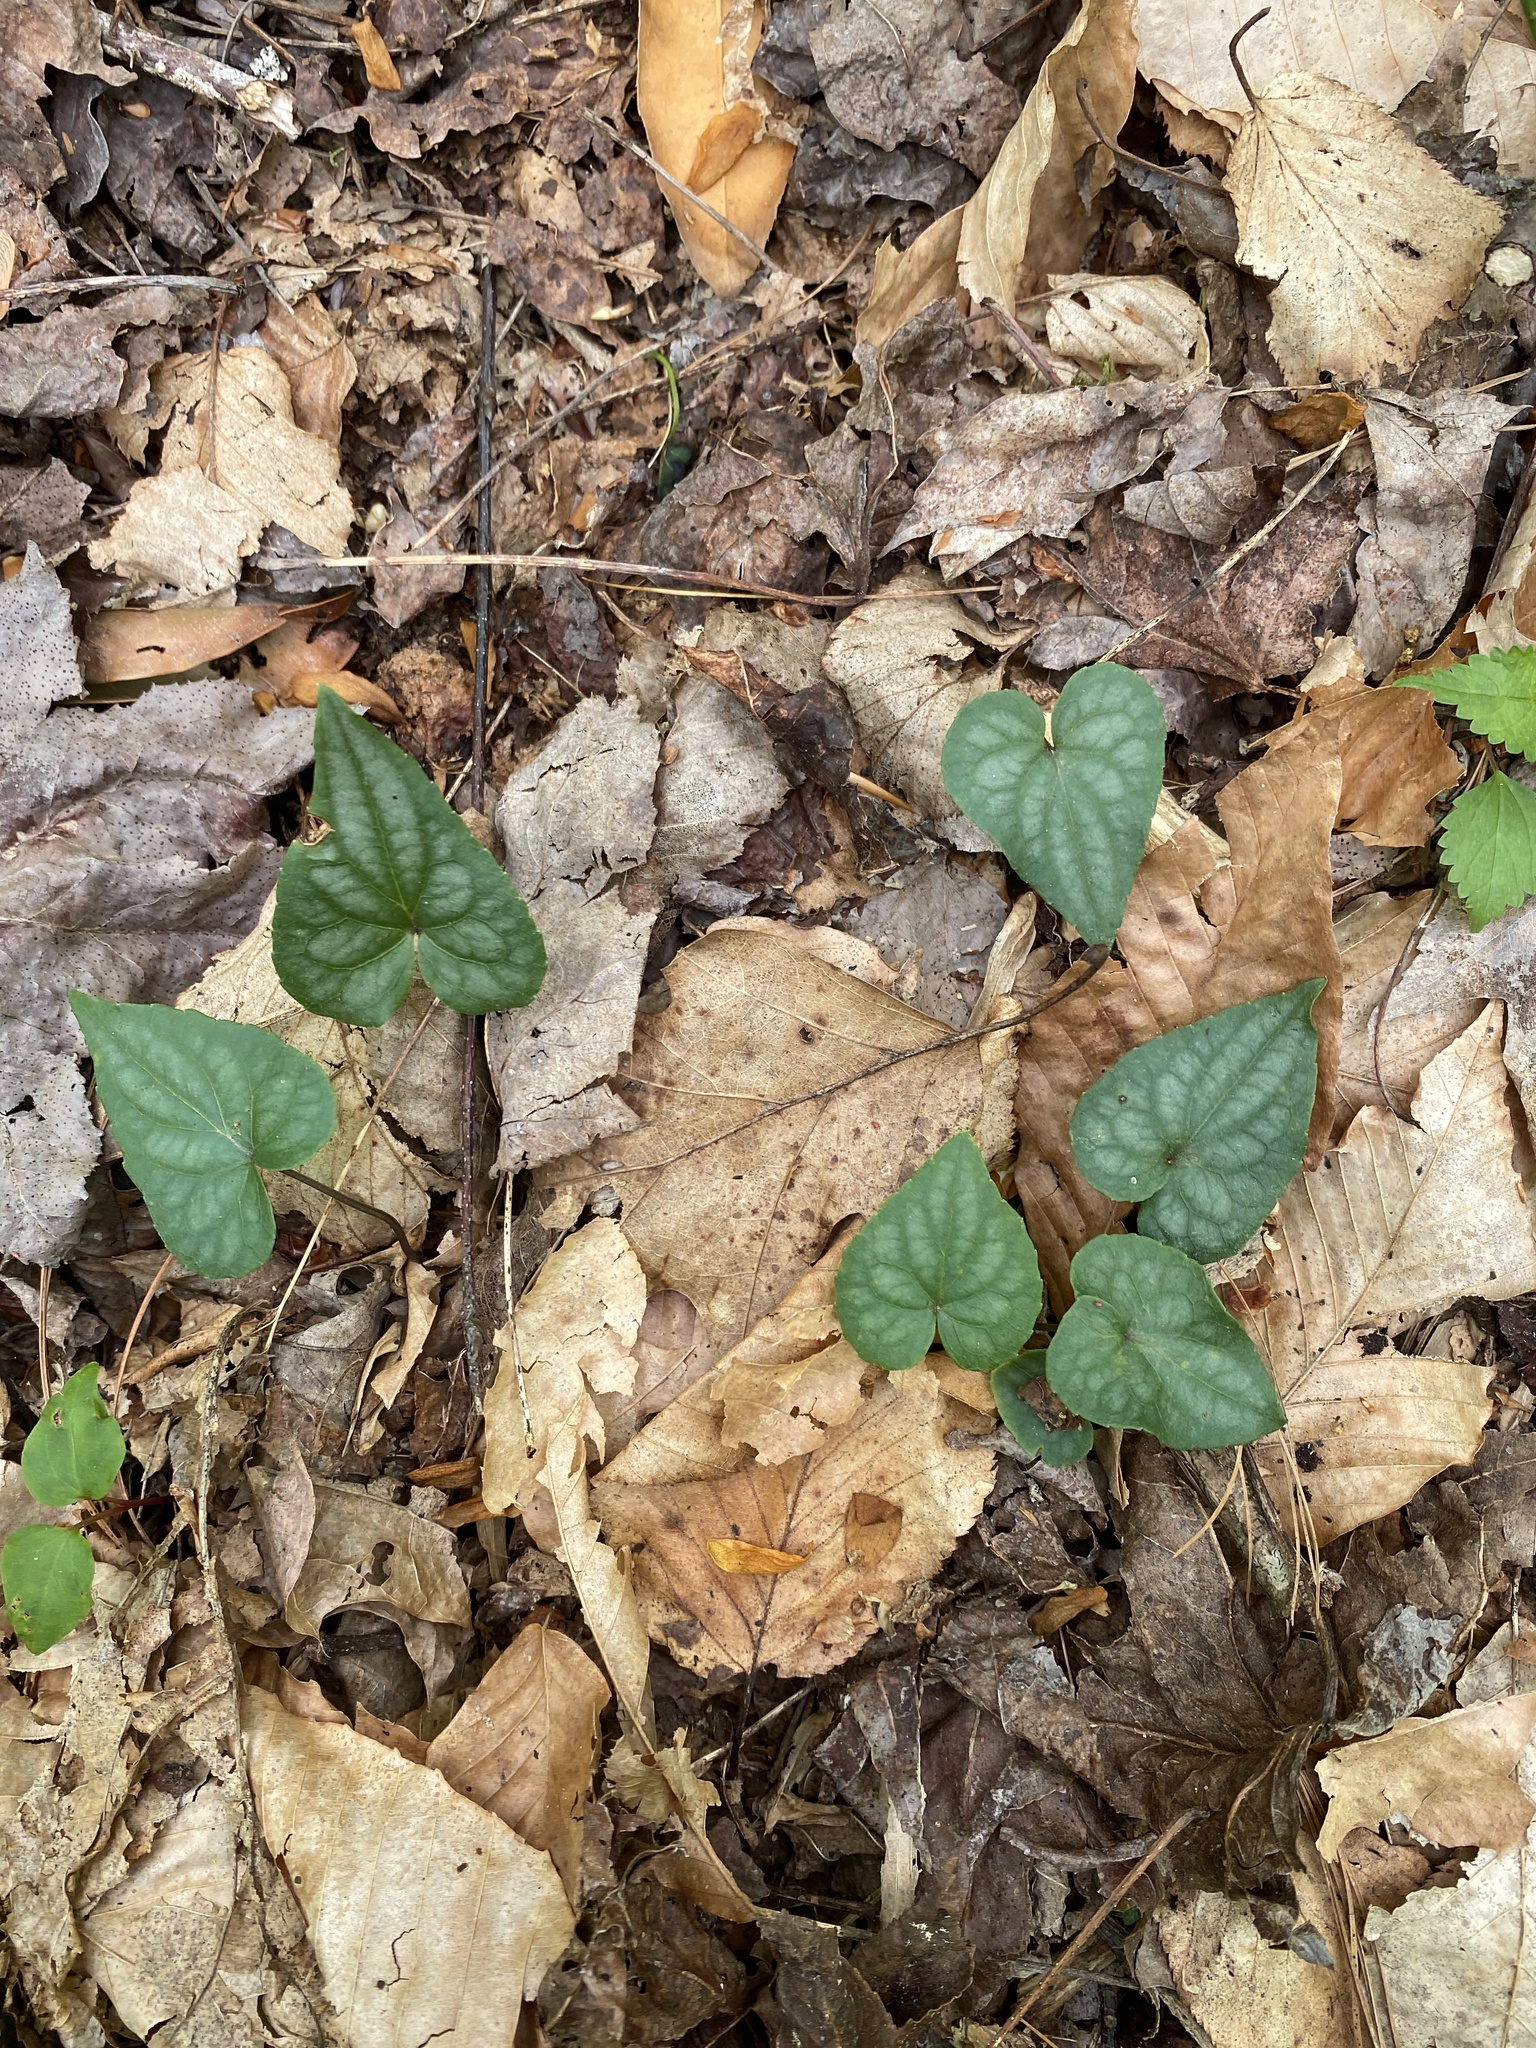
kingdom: Plantae
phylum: Tracheophyta
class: Magnoliopsida
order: Malpighiales
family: Violaceae
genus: Viola
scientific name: Viola hastata
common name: Spear-leaf violet
